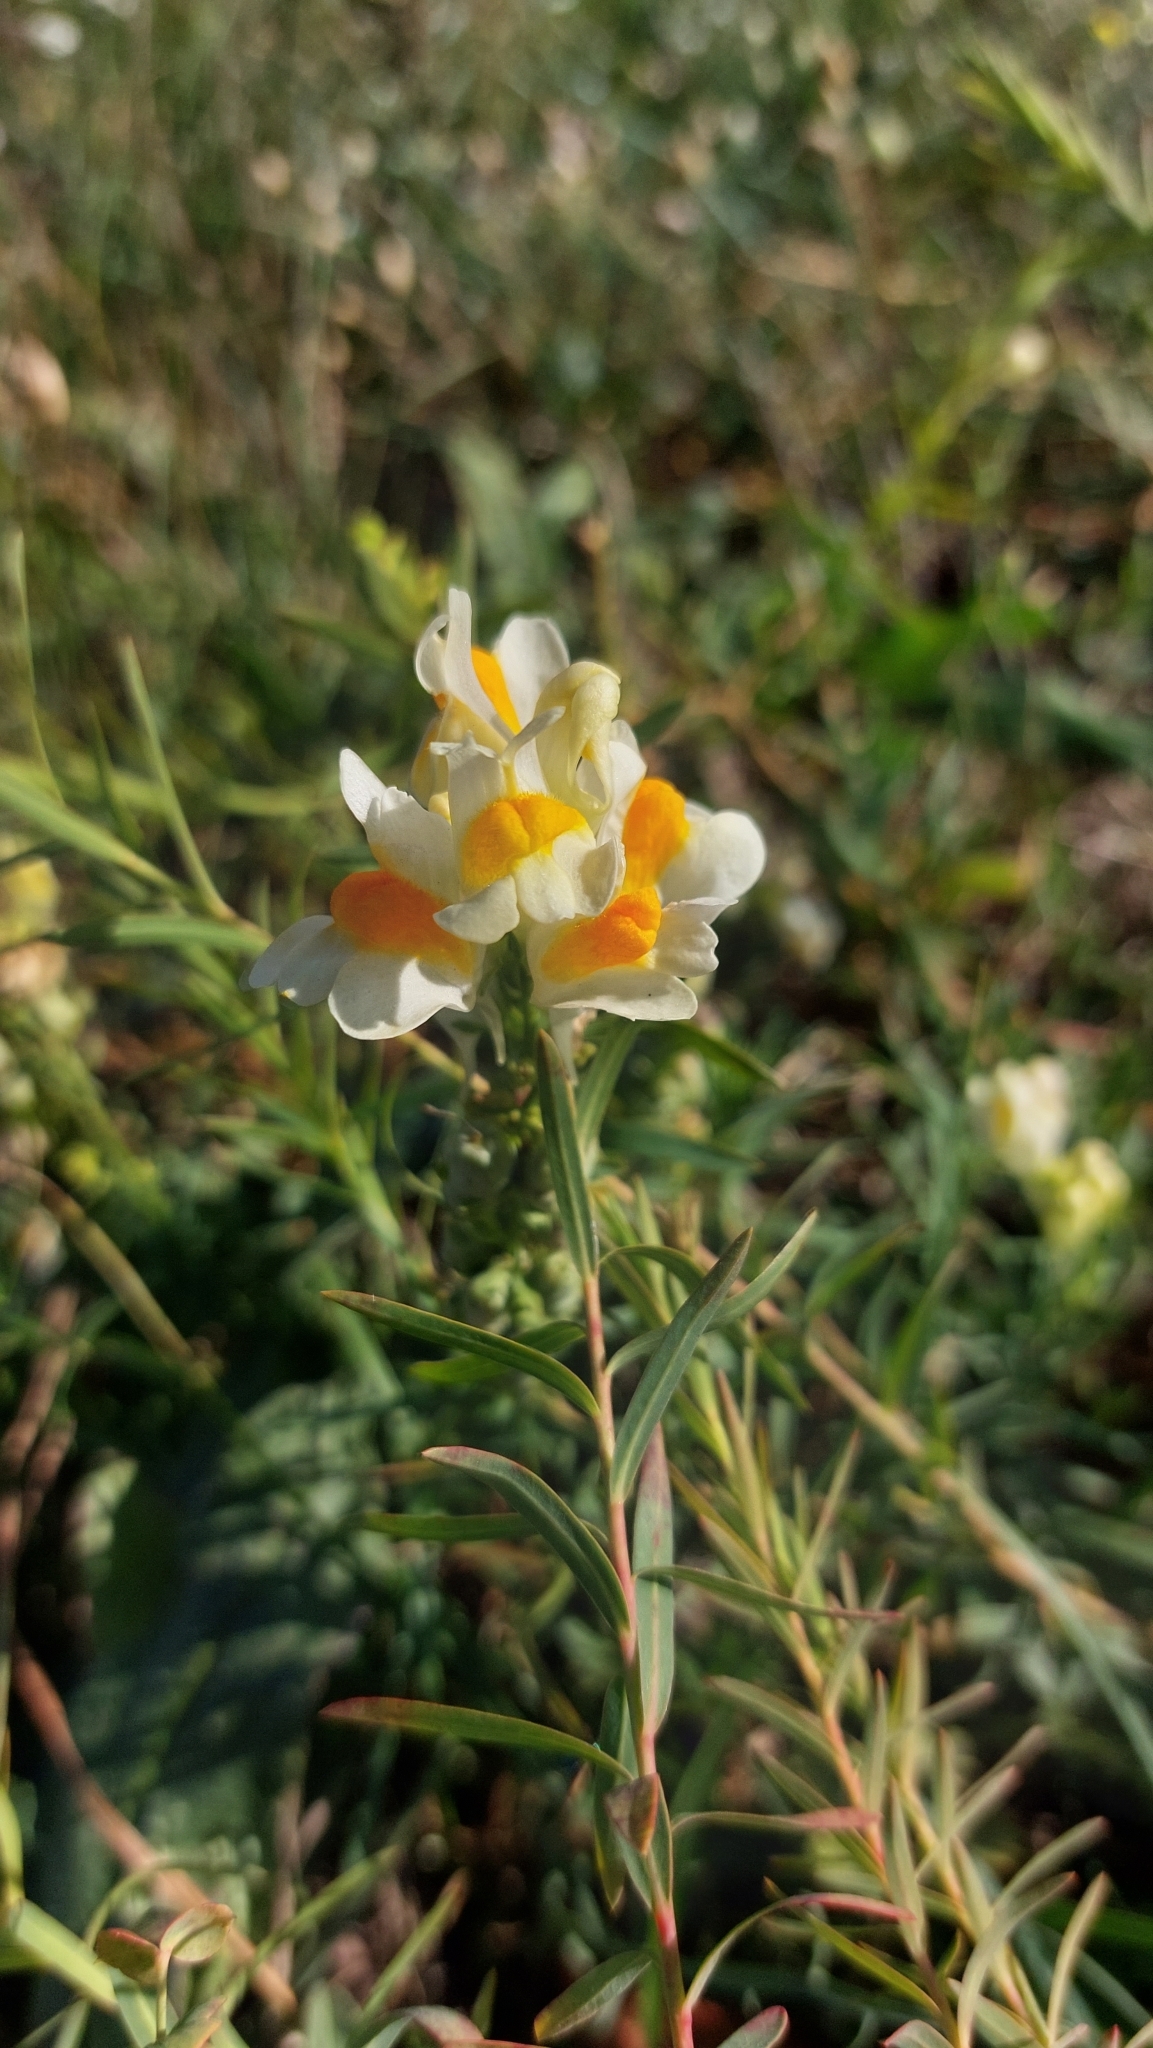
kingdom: Plantae
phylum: Tracheophyta
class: Magnoliopsida
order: Lamiales
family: Plantaginaceae
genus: Linaria
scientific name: Linaria vulgaris
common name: Butter and eggs
